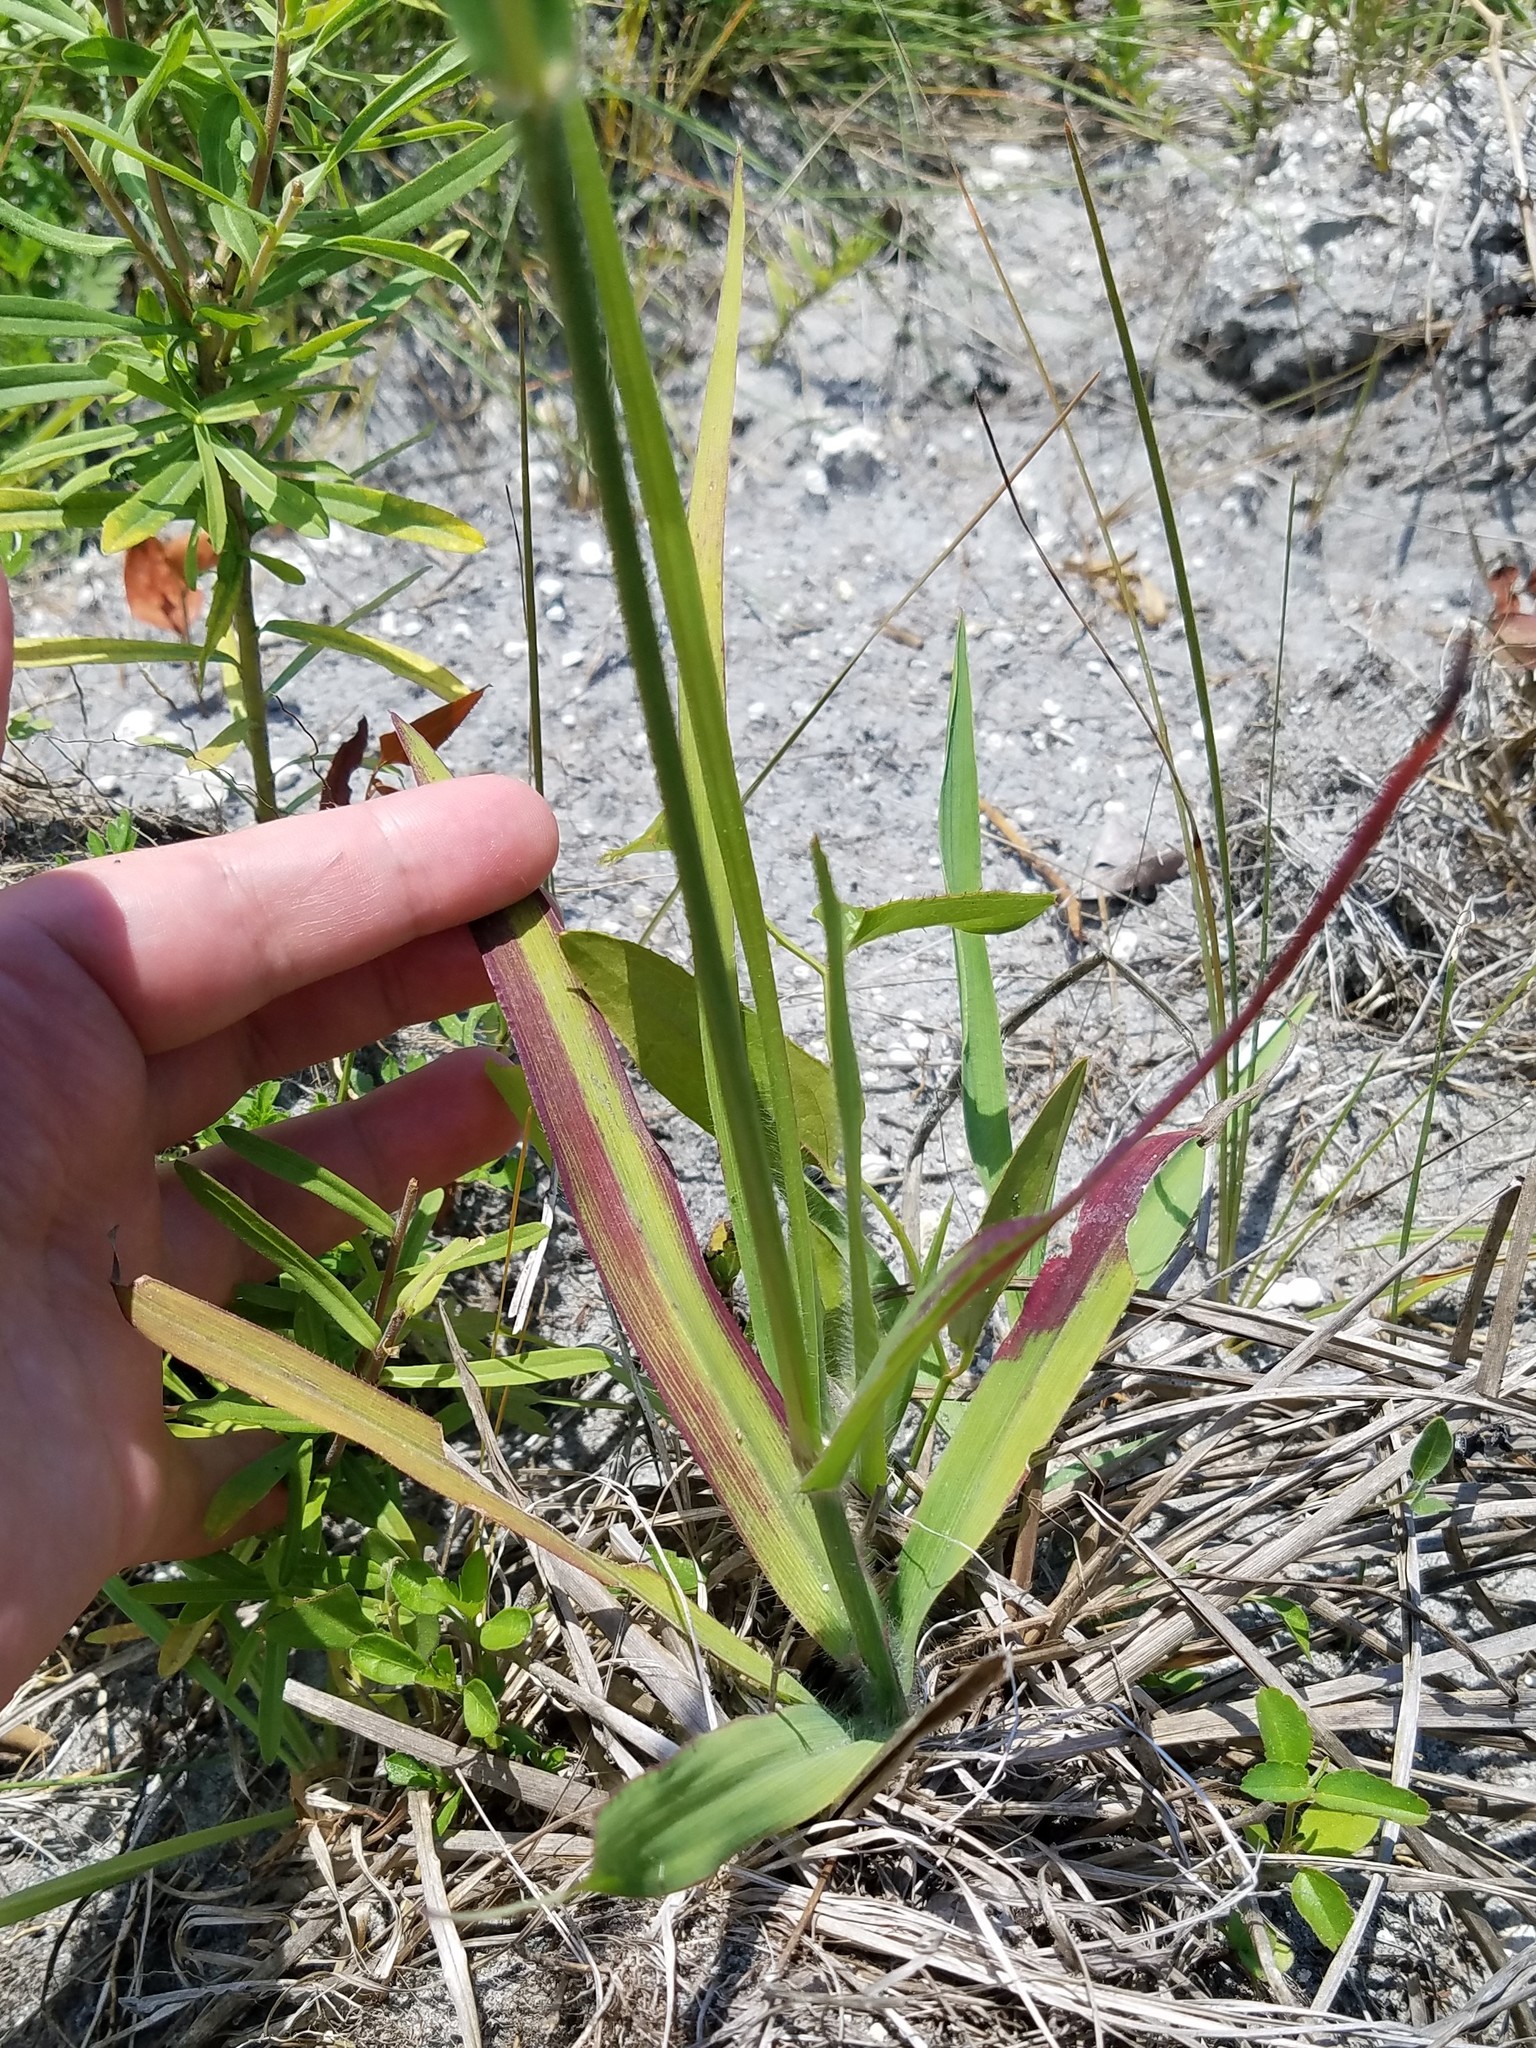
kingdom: Plantae
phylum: Tracheophyta
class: Liliopsida
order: Poales
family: Poaceae
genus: Paspalum
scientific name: Paspalum floridanum
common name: Florida paspalum
